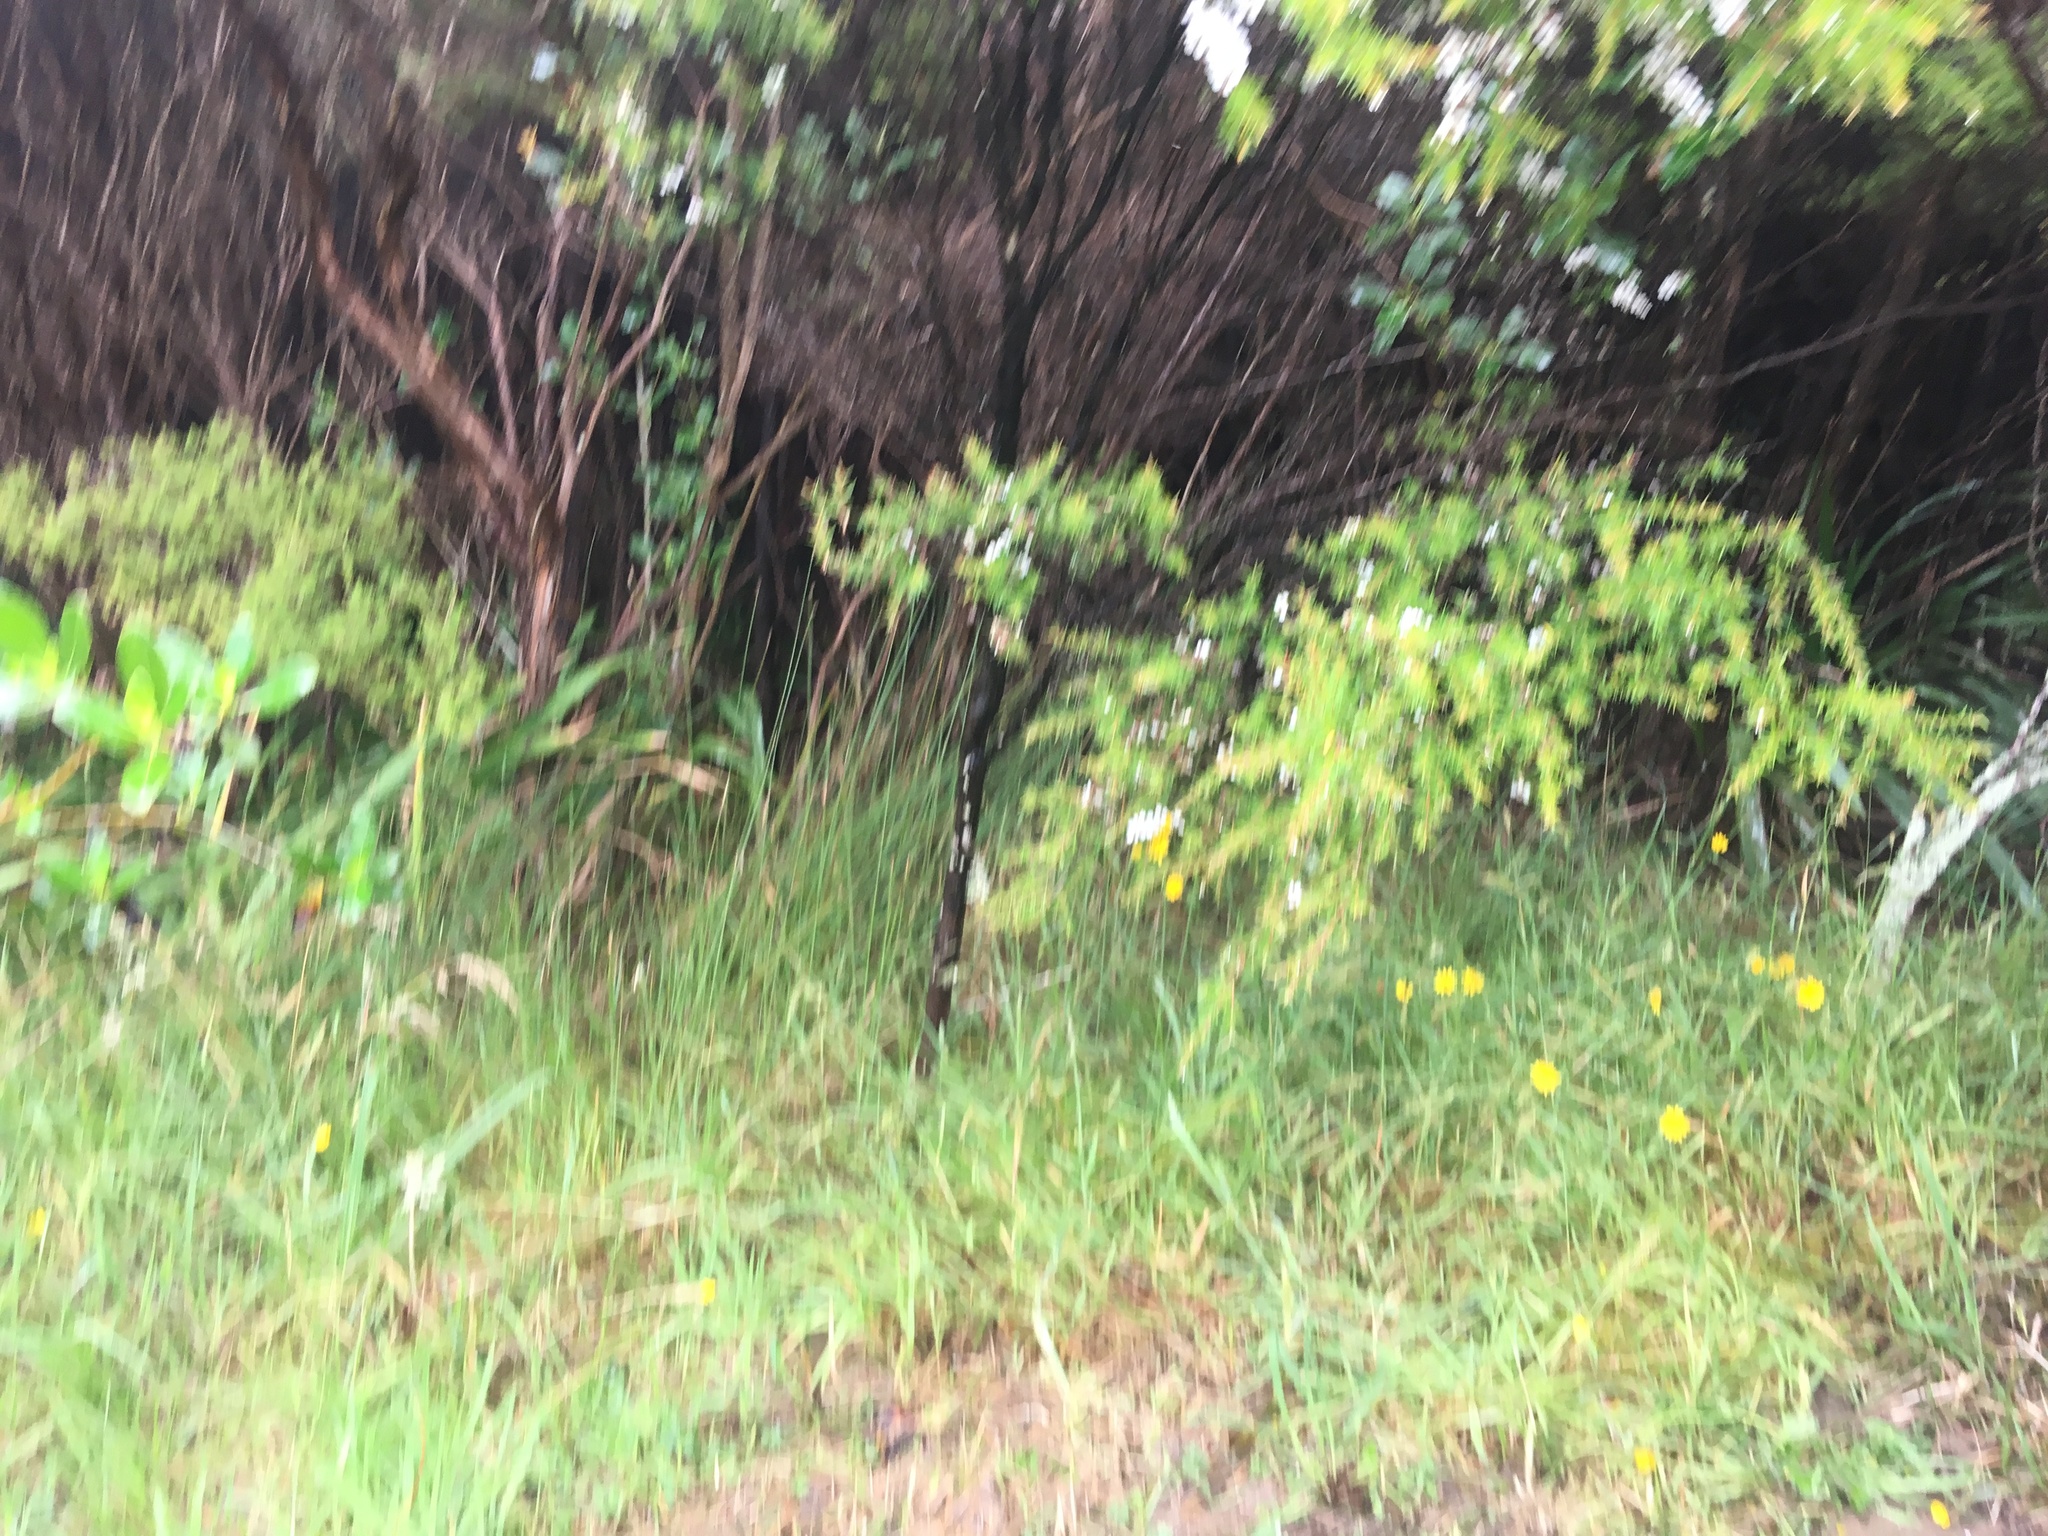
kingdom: Plantae
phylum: Tracheophyta
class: Magnoliopsida
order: Myrtales
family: Myrtaceae
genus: Leptospermum
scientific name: Leptospermum scoparium
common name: Broom tea-tree
